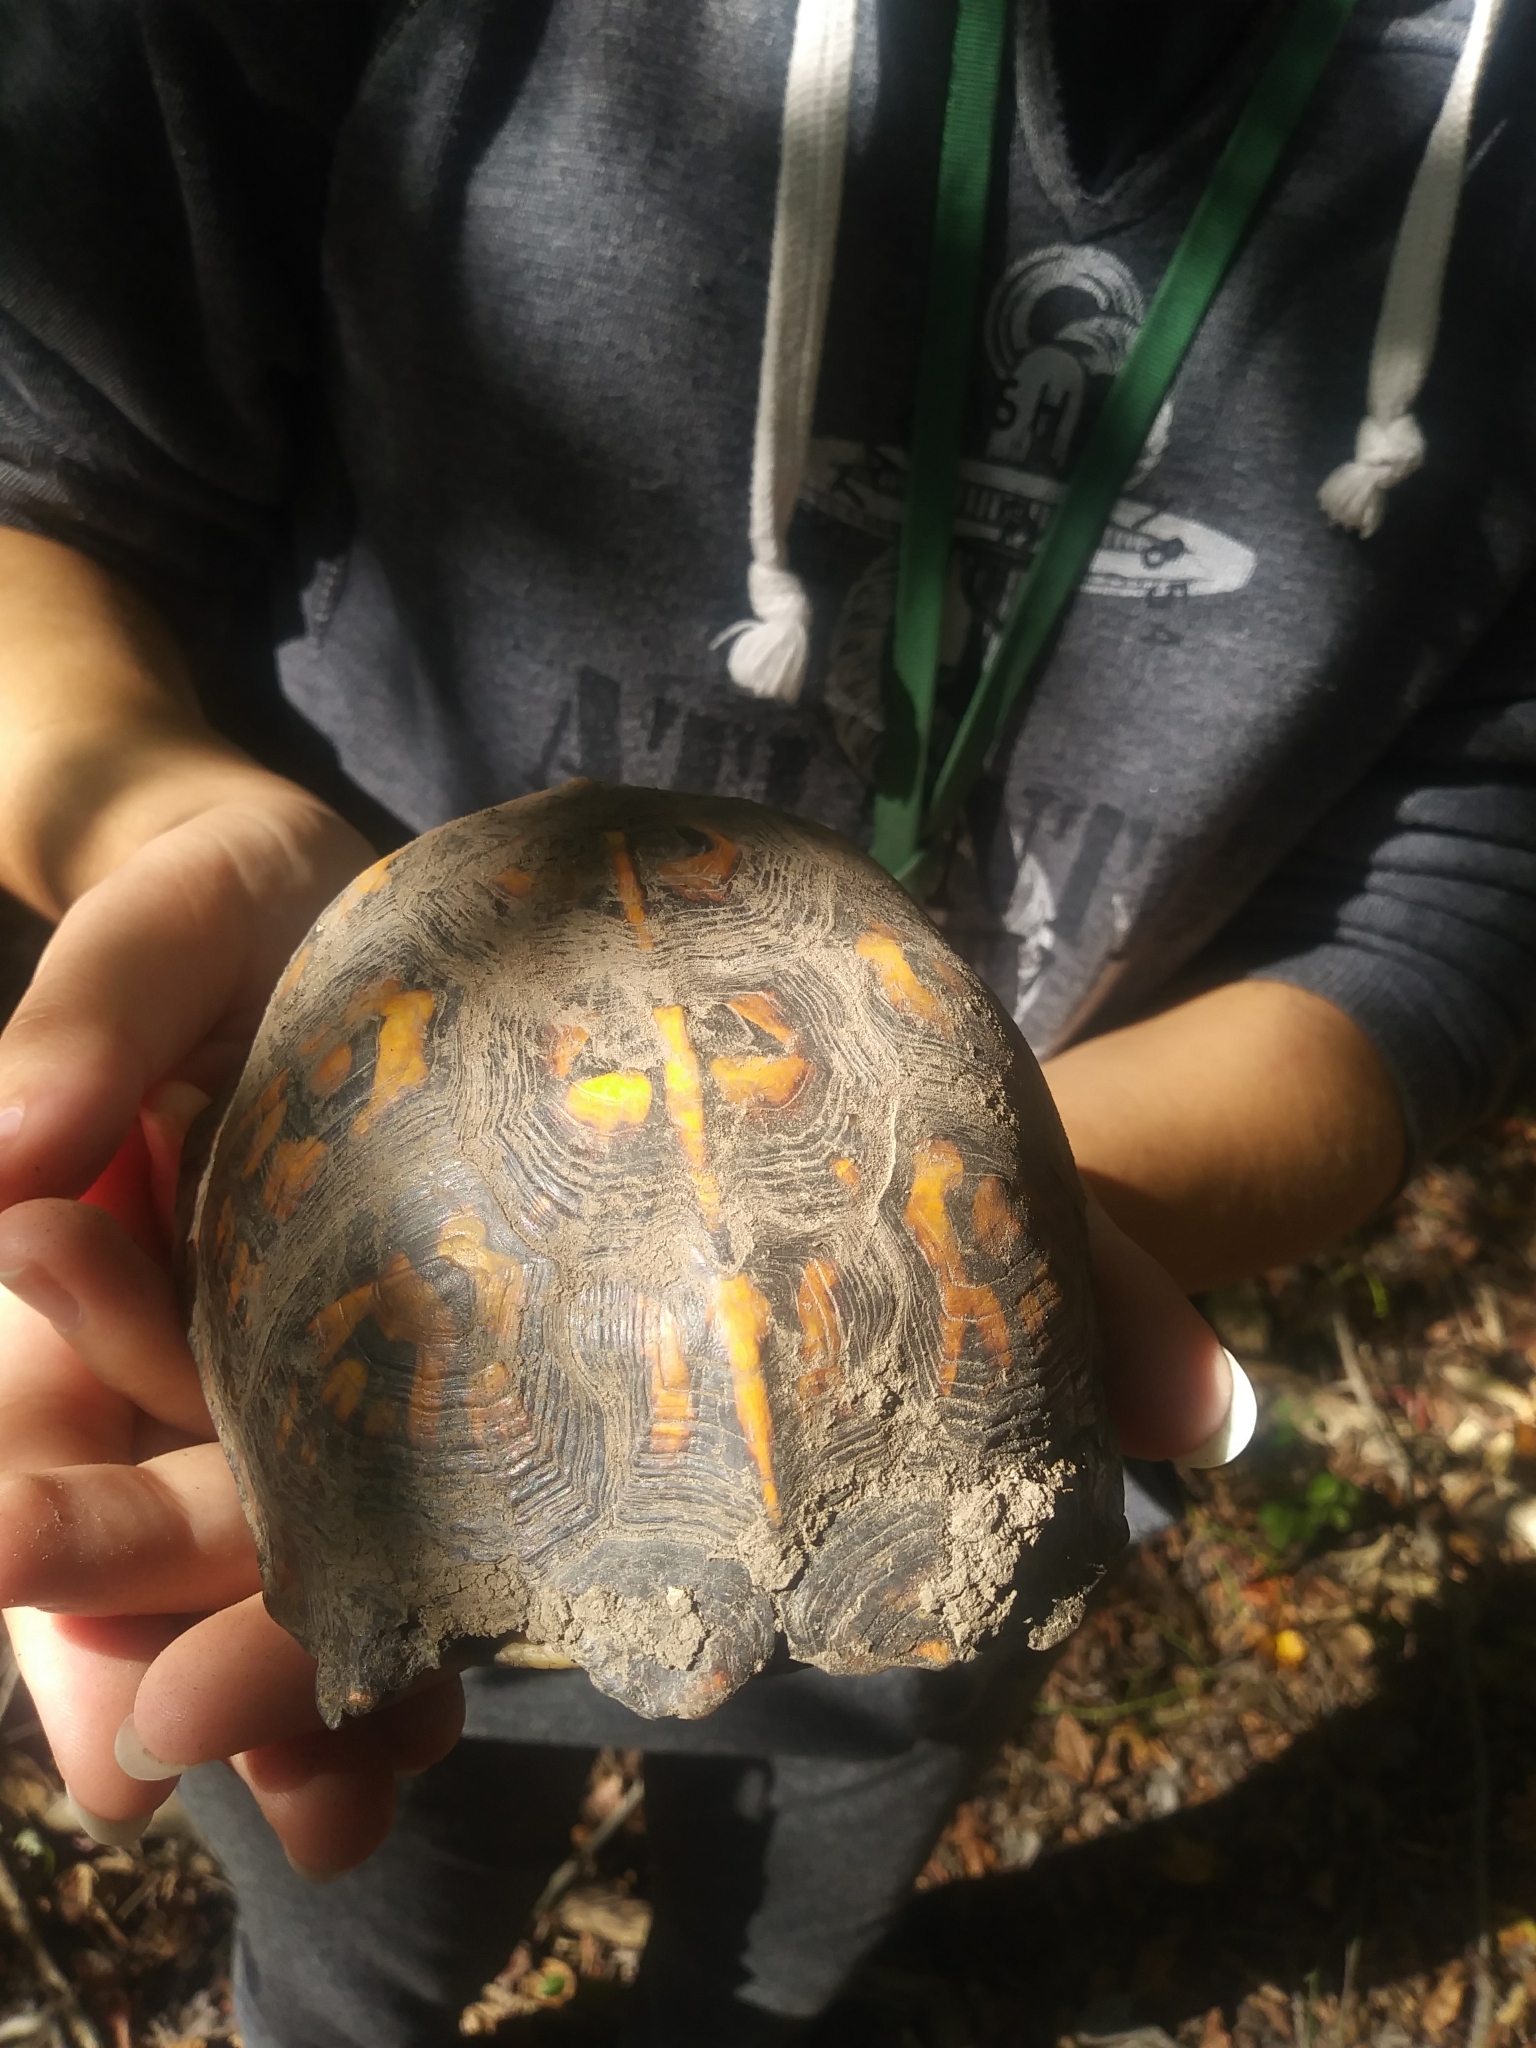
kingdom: Animalia
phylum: Chordata
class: Testudines
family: Emydidae
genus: Terrapene
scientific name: Terrapene carolina
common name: Common box turtle
